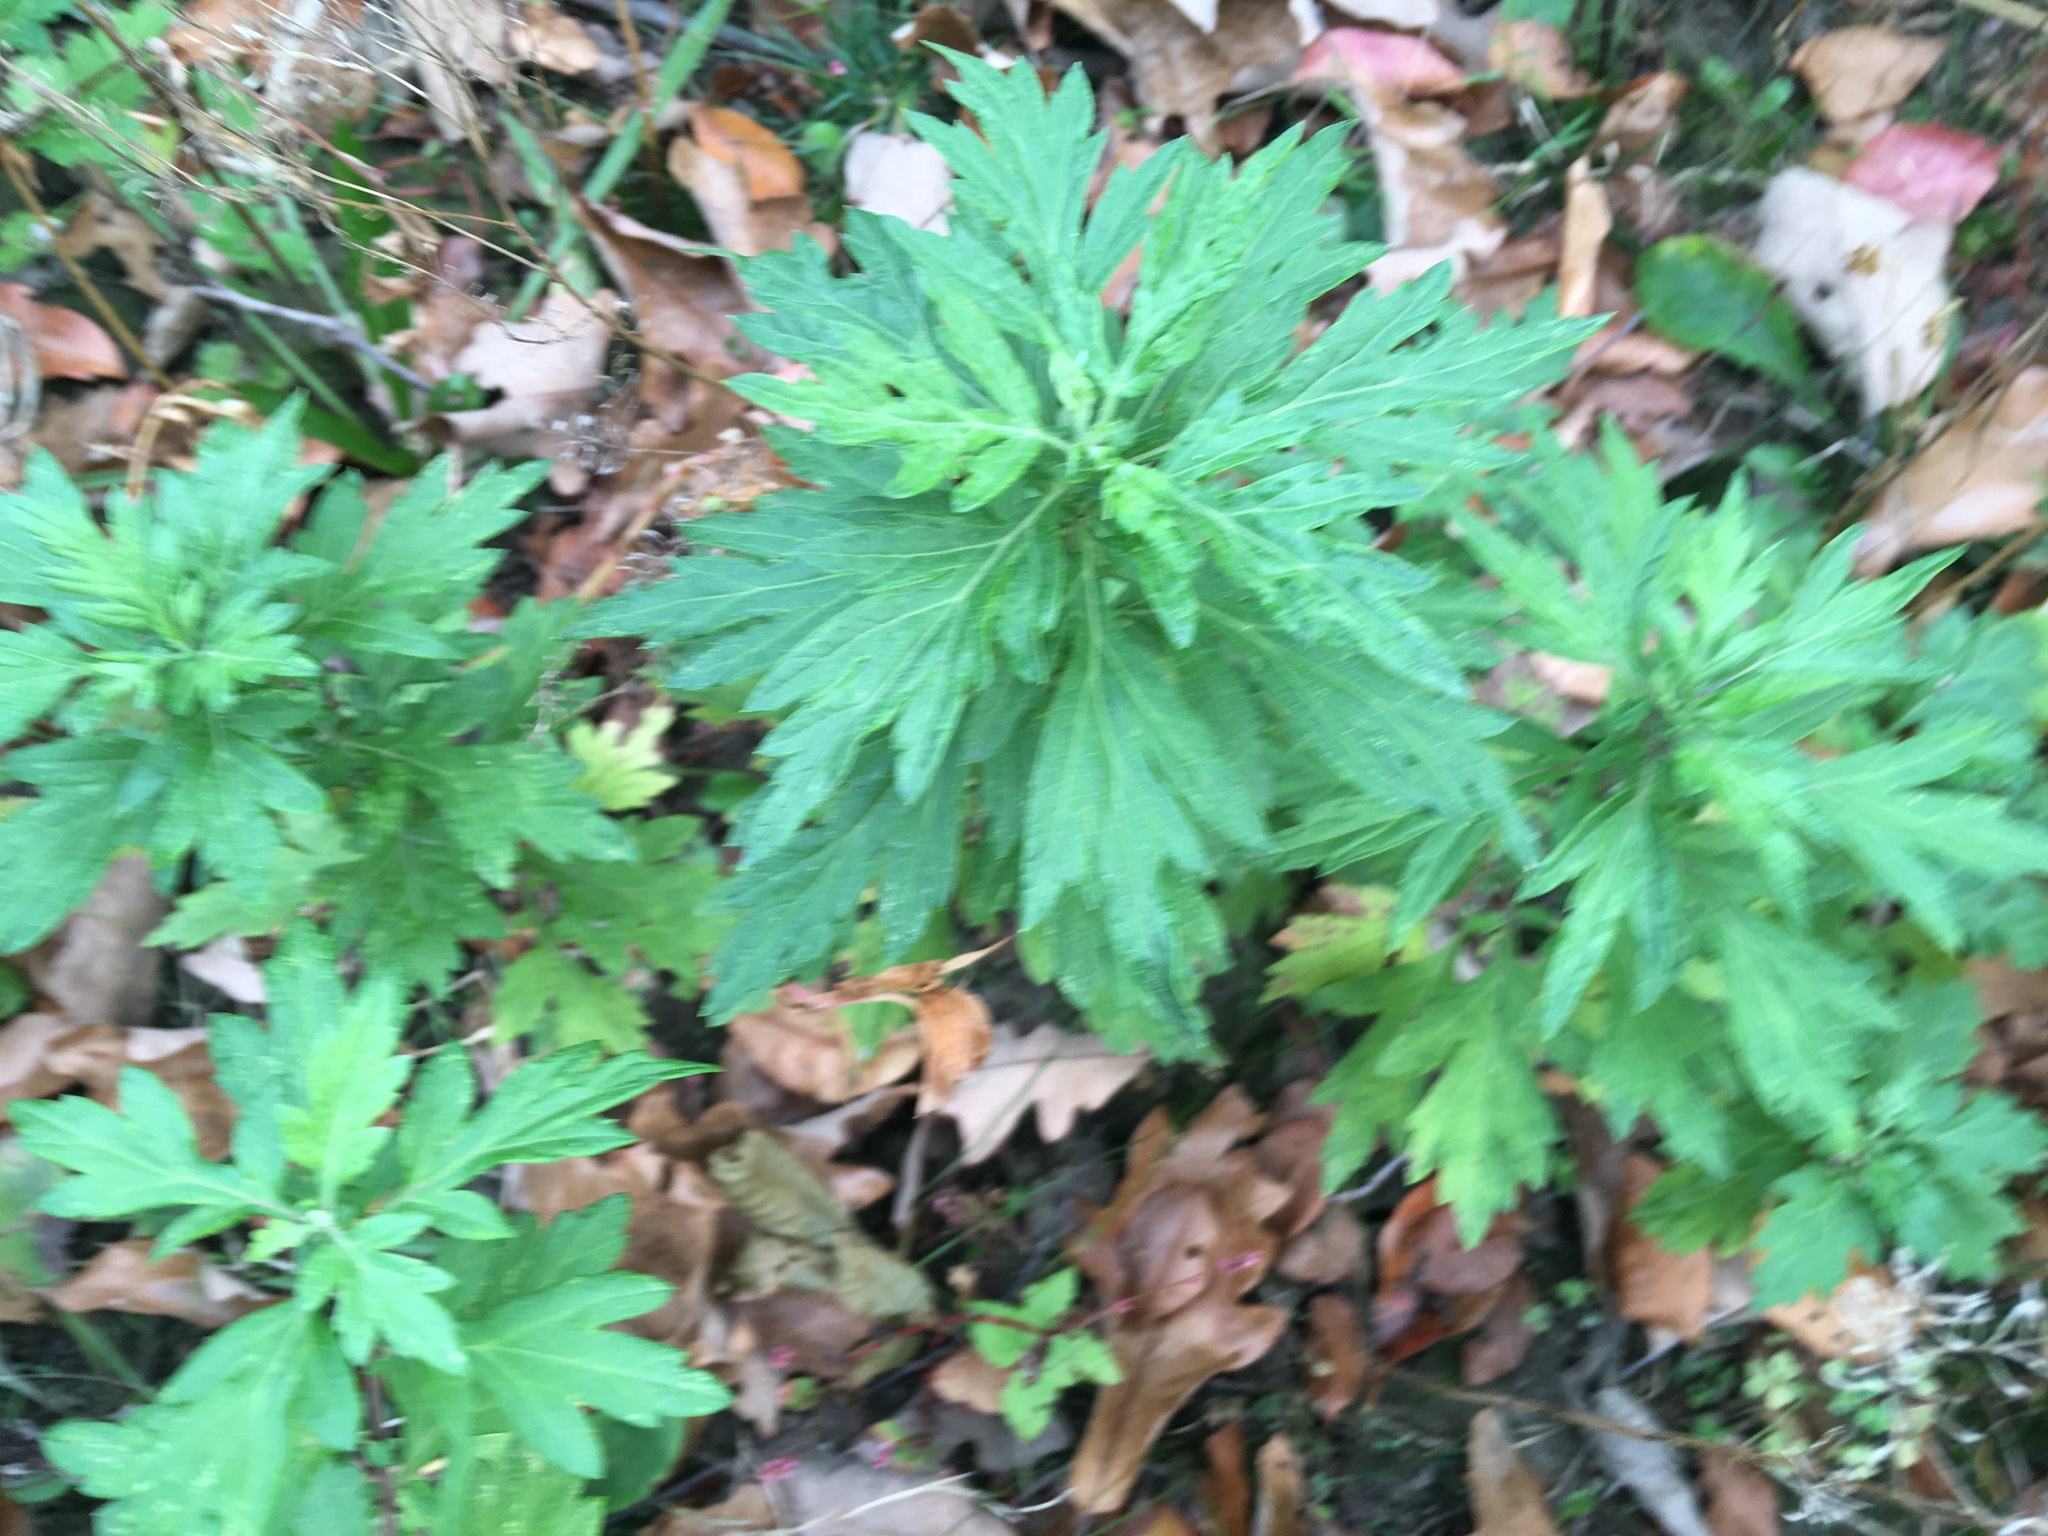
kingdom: Plantae
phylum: Tracheophyta
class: Magnoliopsida
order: Asterales
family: Asteraceae
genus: Artemisia
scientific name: Artemisia vulgaris
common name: Mugwort
